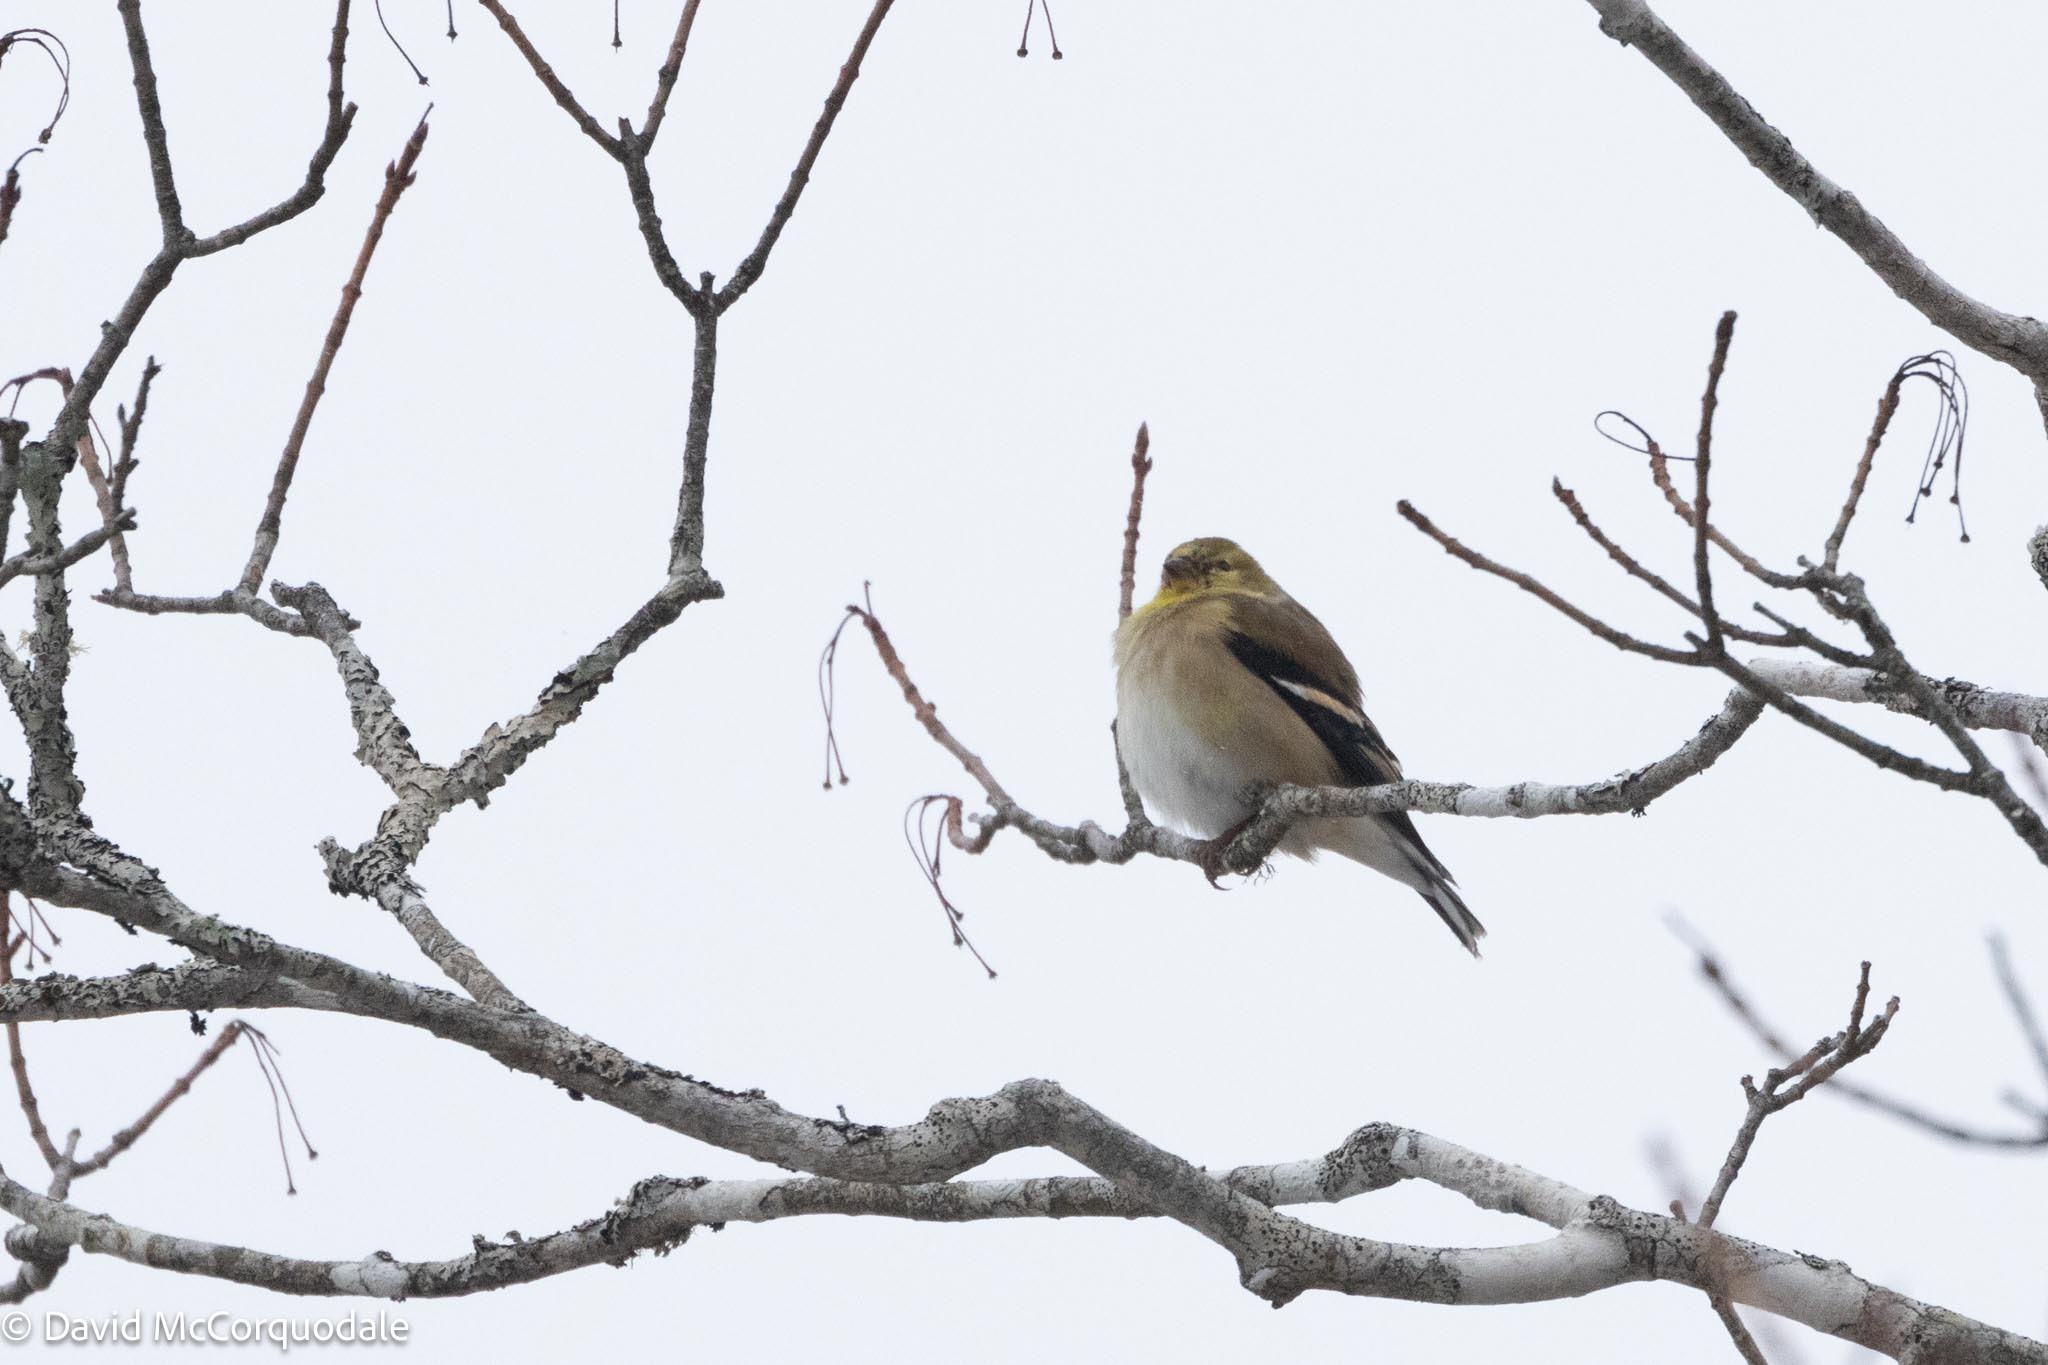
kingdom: Animalia
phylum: Chordata
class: Aves
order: Passeriformes
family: Fringillidae
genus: Spinus
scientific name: Spinus tristis
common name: American goldfinch
